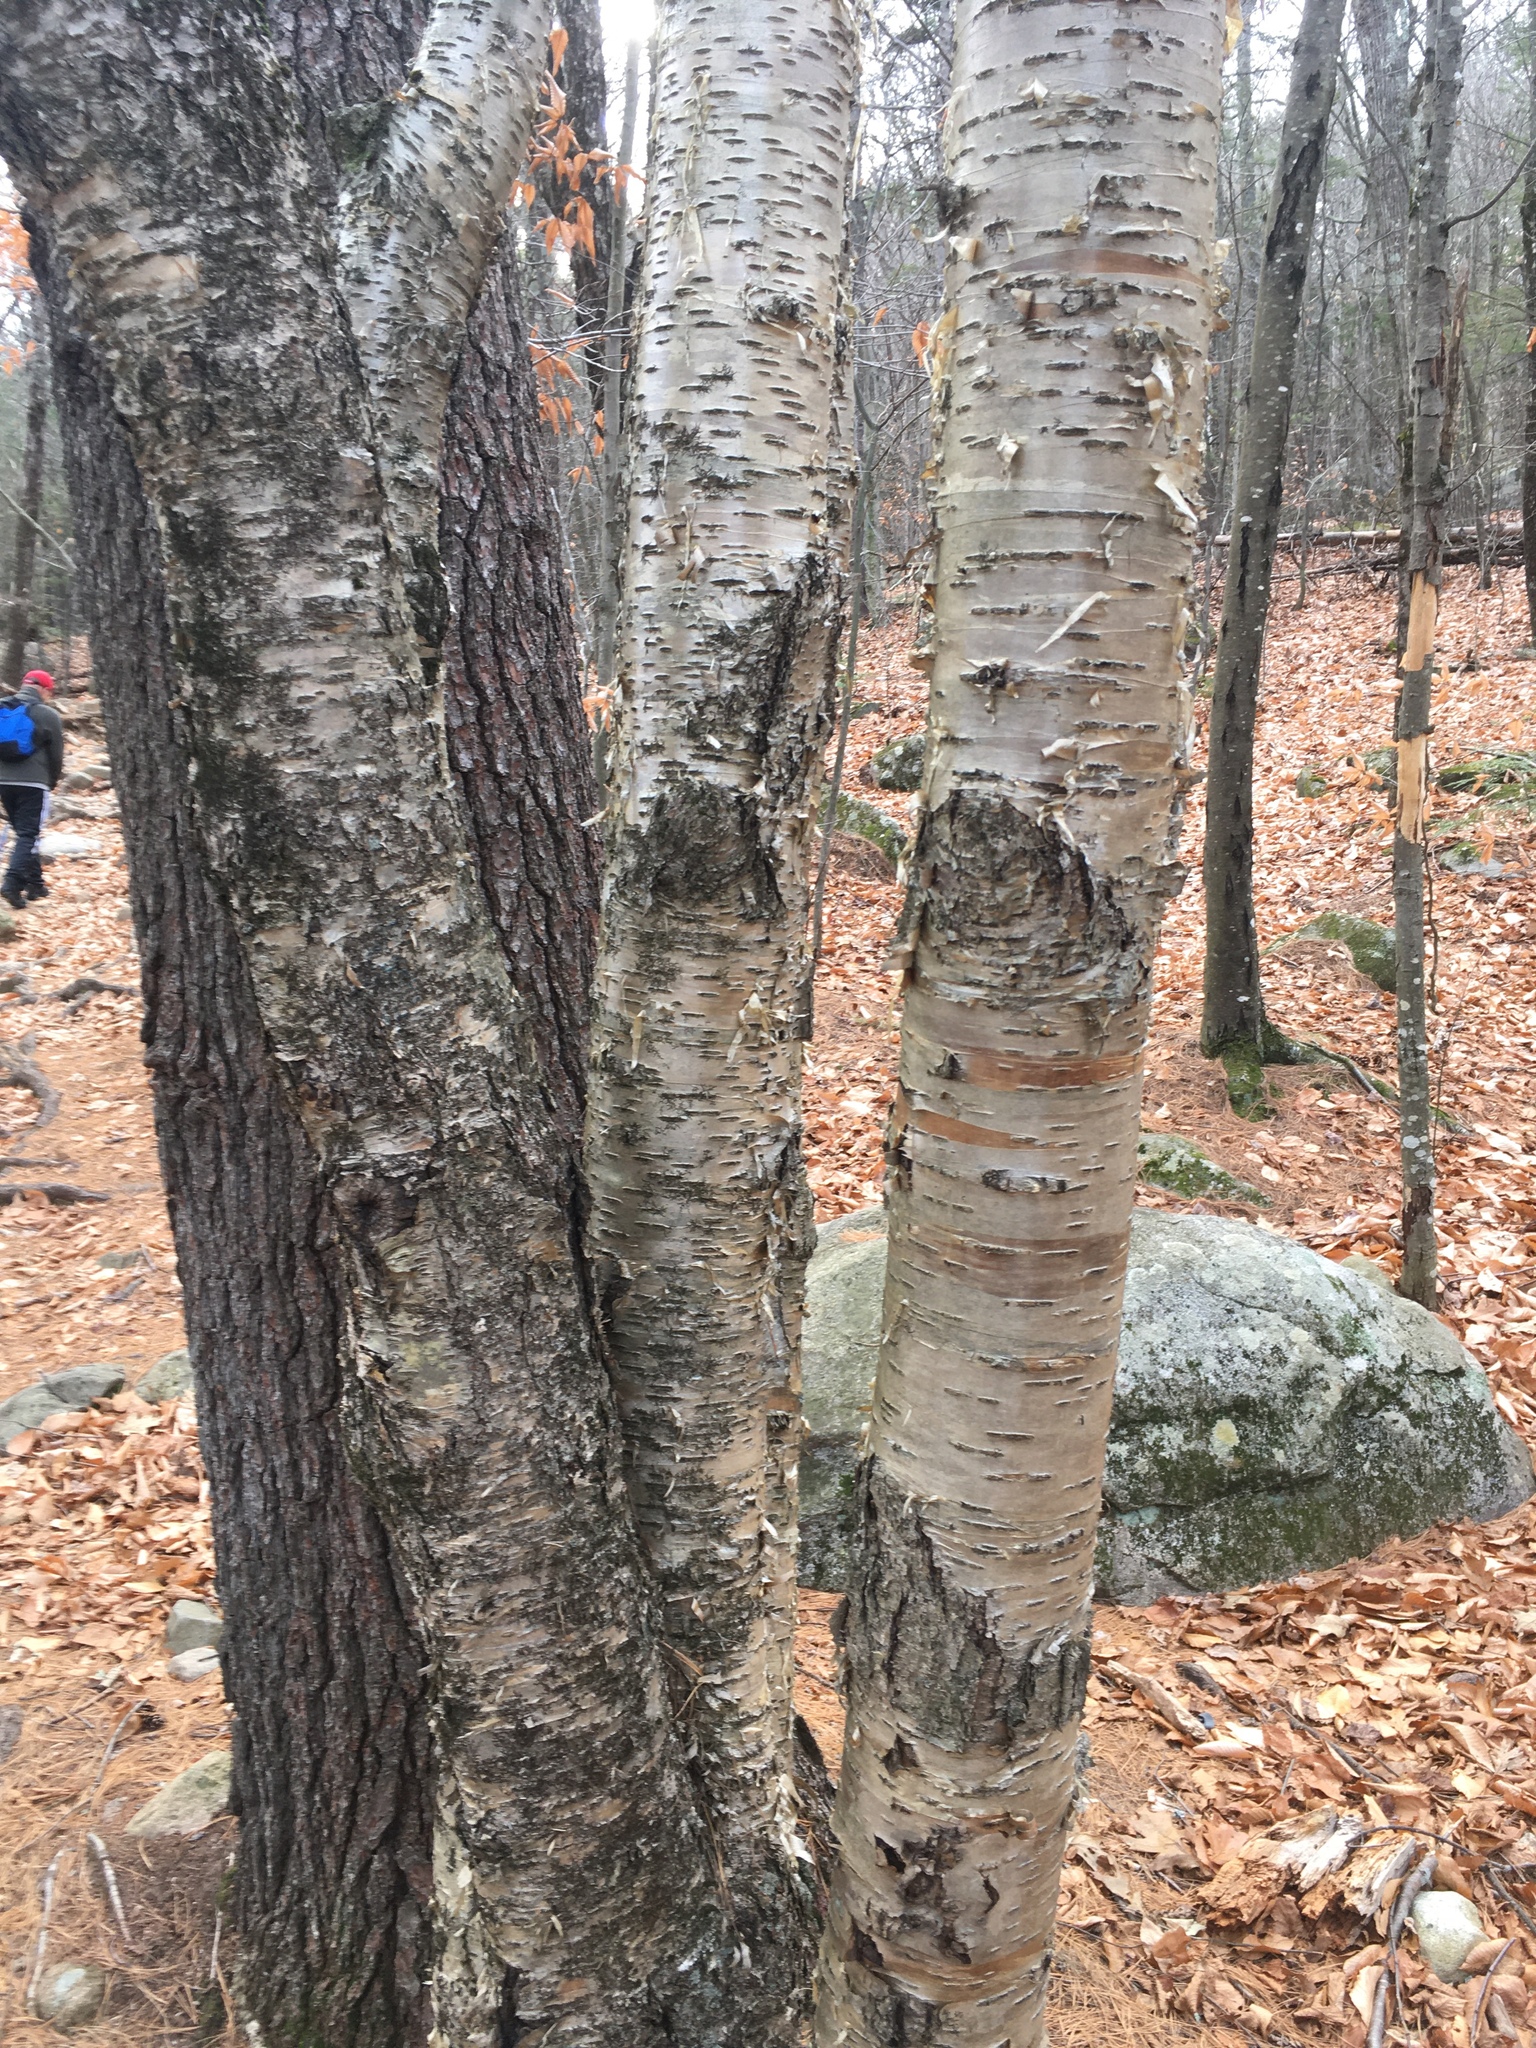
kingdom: Plantae
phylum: Tracheophyta
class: Magnoliopsida
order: Fagales
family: Betulaceae
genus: Betula
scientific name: Betula alleghaniensis
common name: Yellow birch
